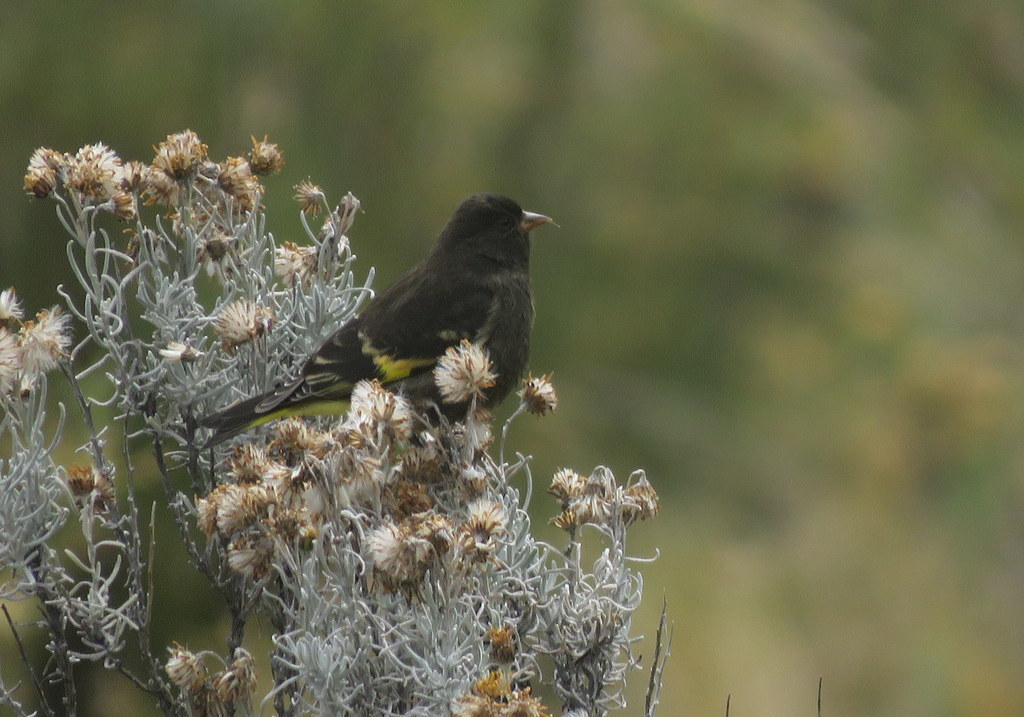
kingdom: Animalia
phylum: Chordata
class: Aves
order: Passeriformes
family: Fringillidae
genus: Spinus
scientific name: Spinus atratus
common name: Black siskin
